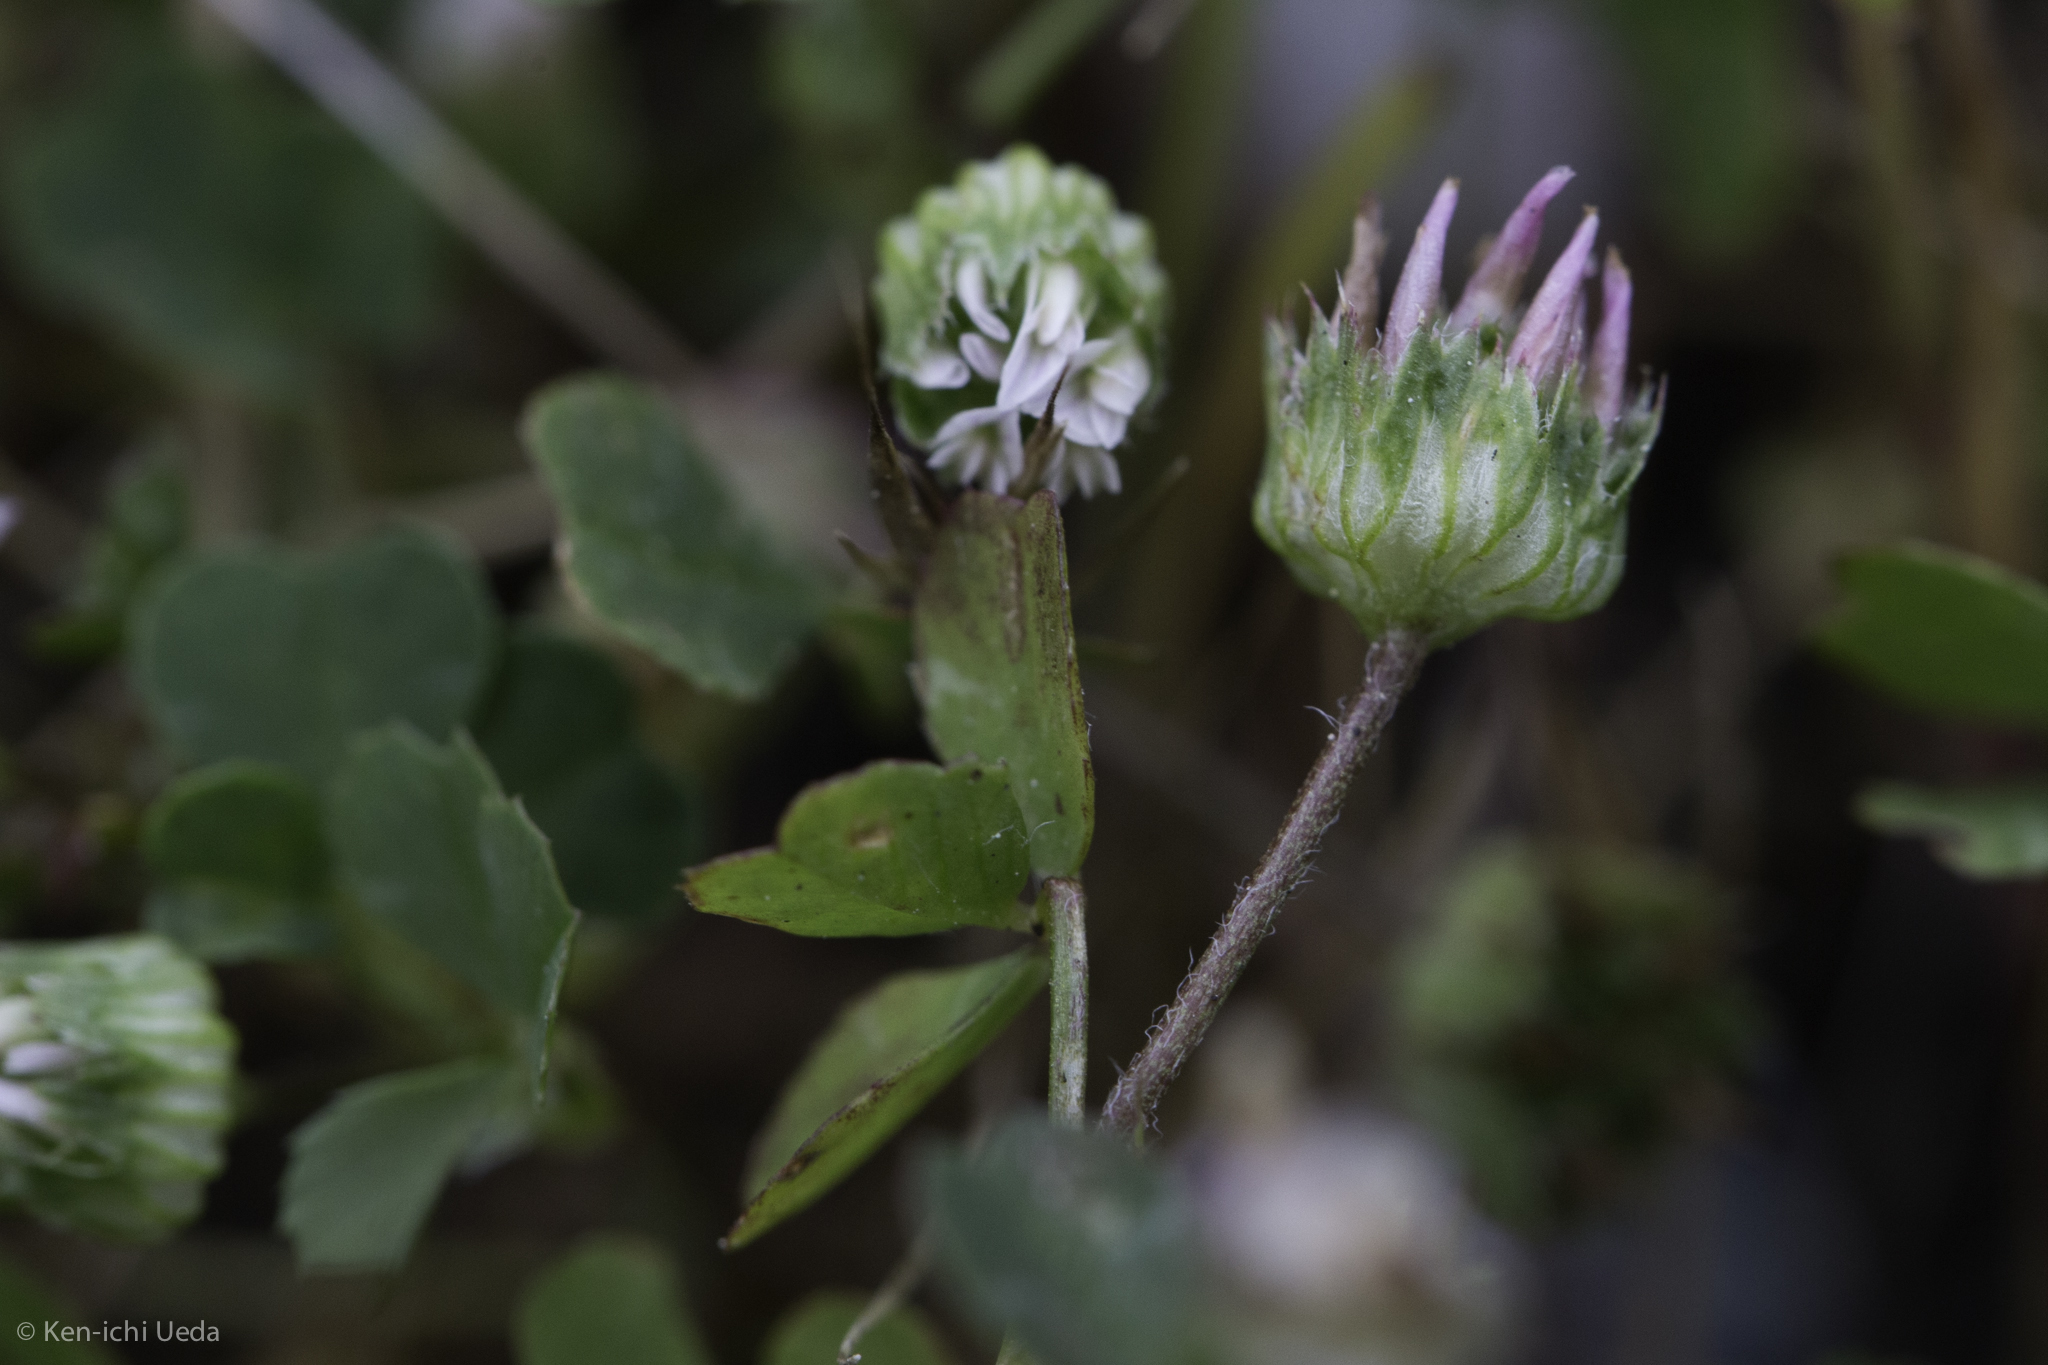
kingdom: Plantae
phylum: Tracheophyta
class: Magnoliopsida
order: Fabales
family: Fabaceae
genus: Trifolium
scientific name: Trifolium microdon
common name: Thimble clover
